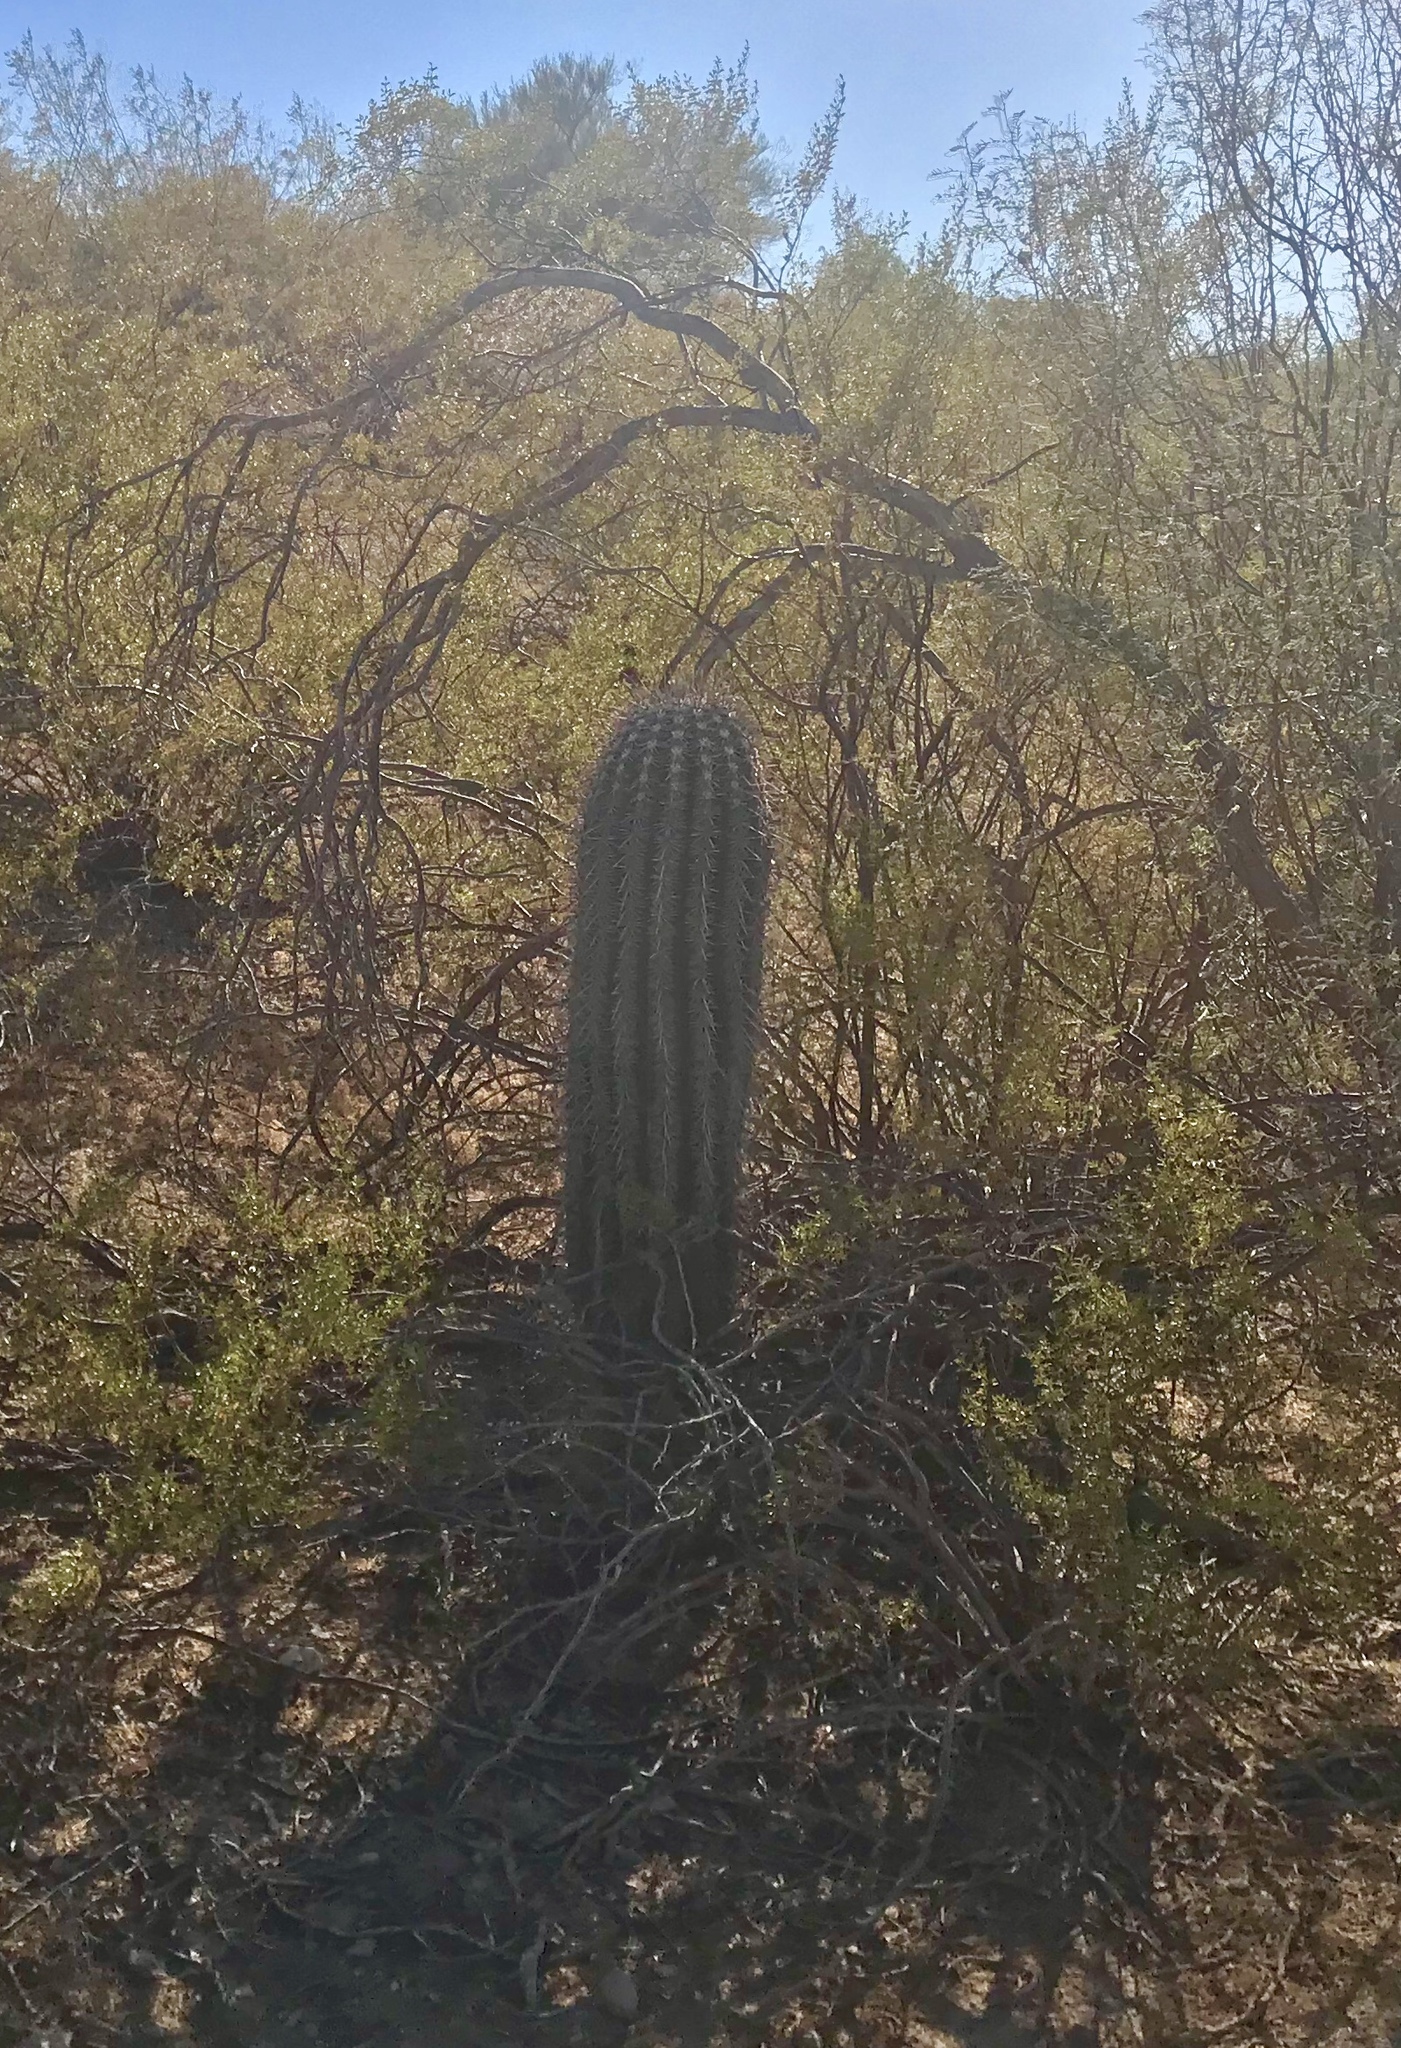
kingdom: Plantae
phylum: Tracheophyta
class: Magnoliopsida
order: Caryophyllales
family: Cactaceae
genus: Carnegiea
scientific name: Carnegiea gigantea
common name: Saguaro
